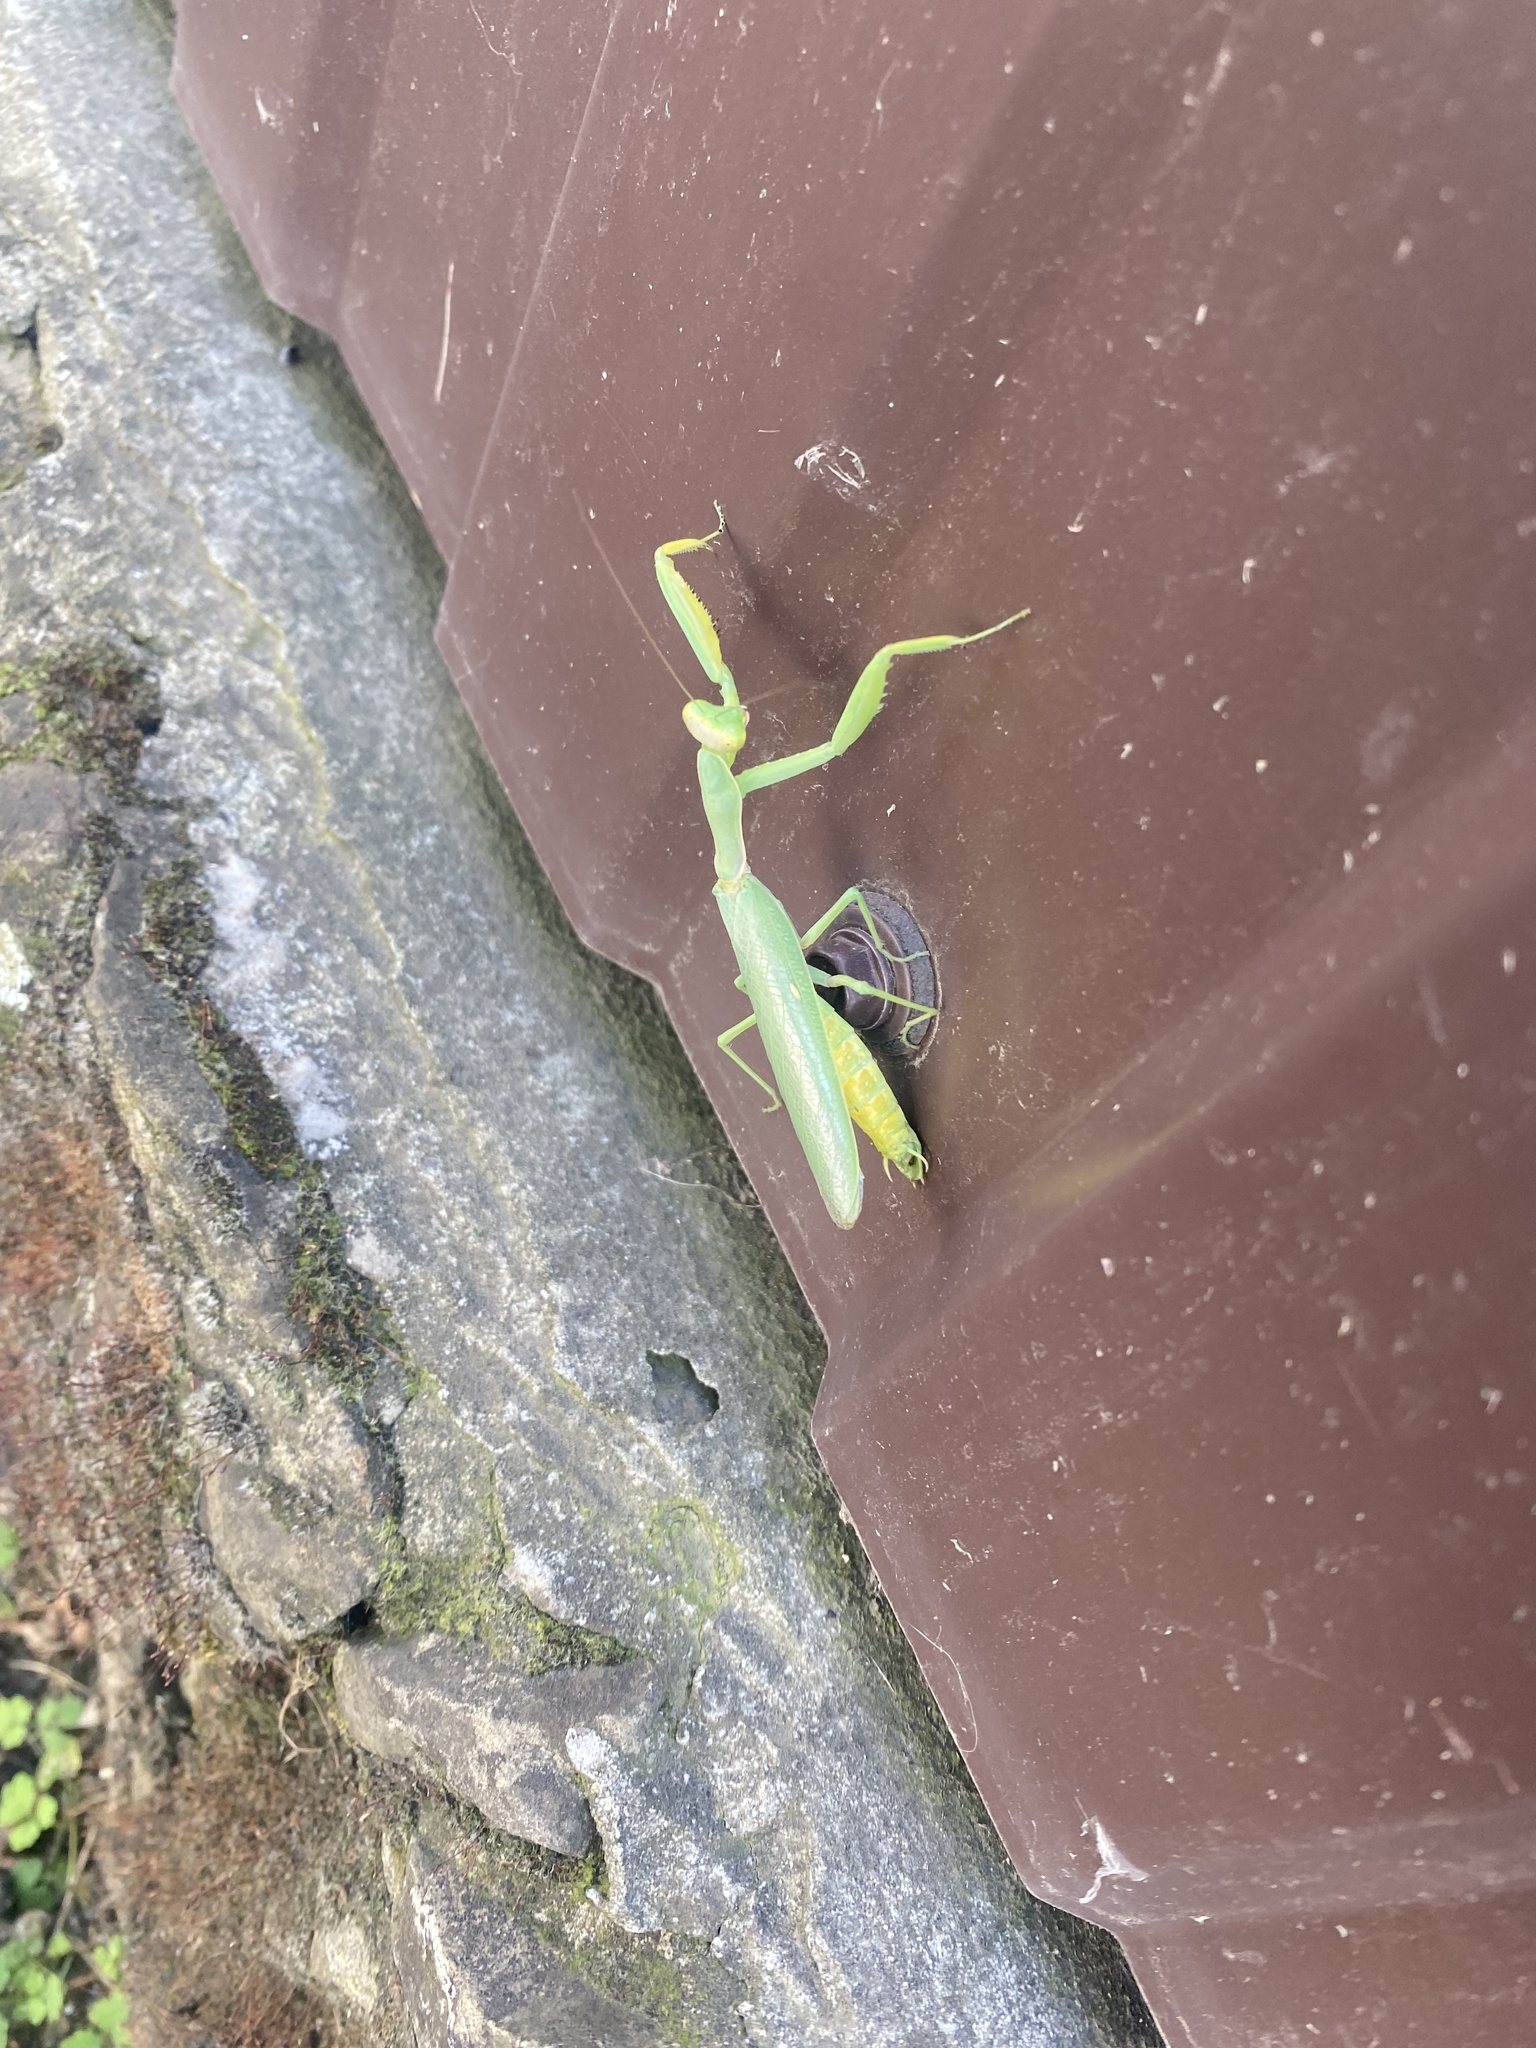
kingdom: Animalia
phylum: Arthropoda
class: Insecta
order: Mantodea
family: Mantidae
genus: Hierodula
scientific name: Hierodula transcaucasica
